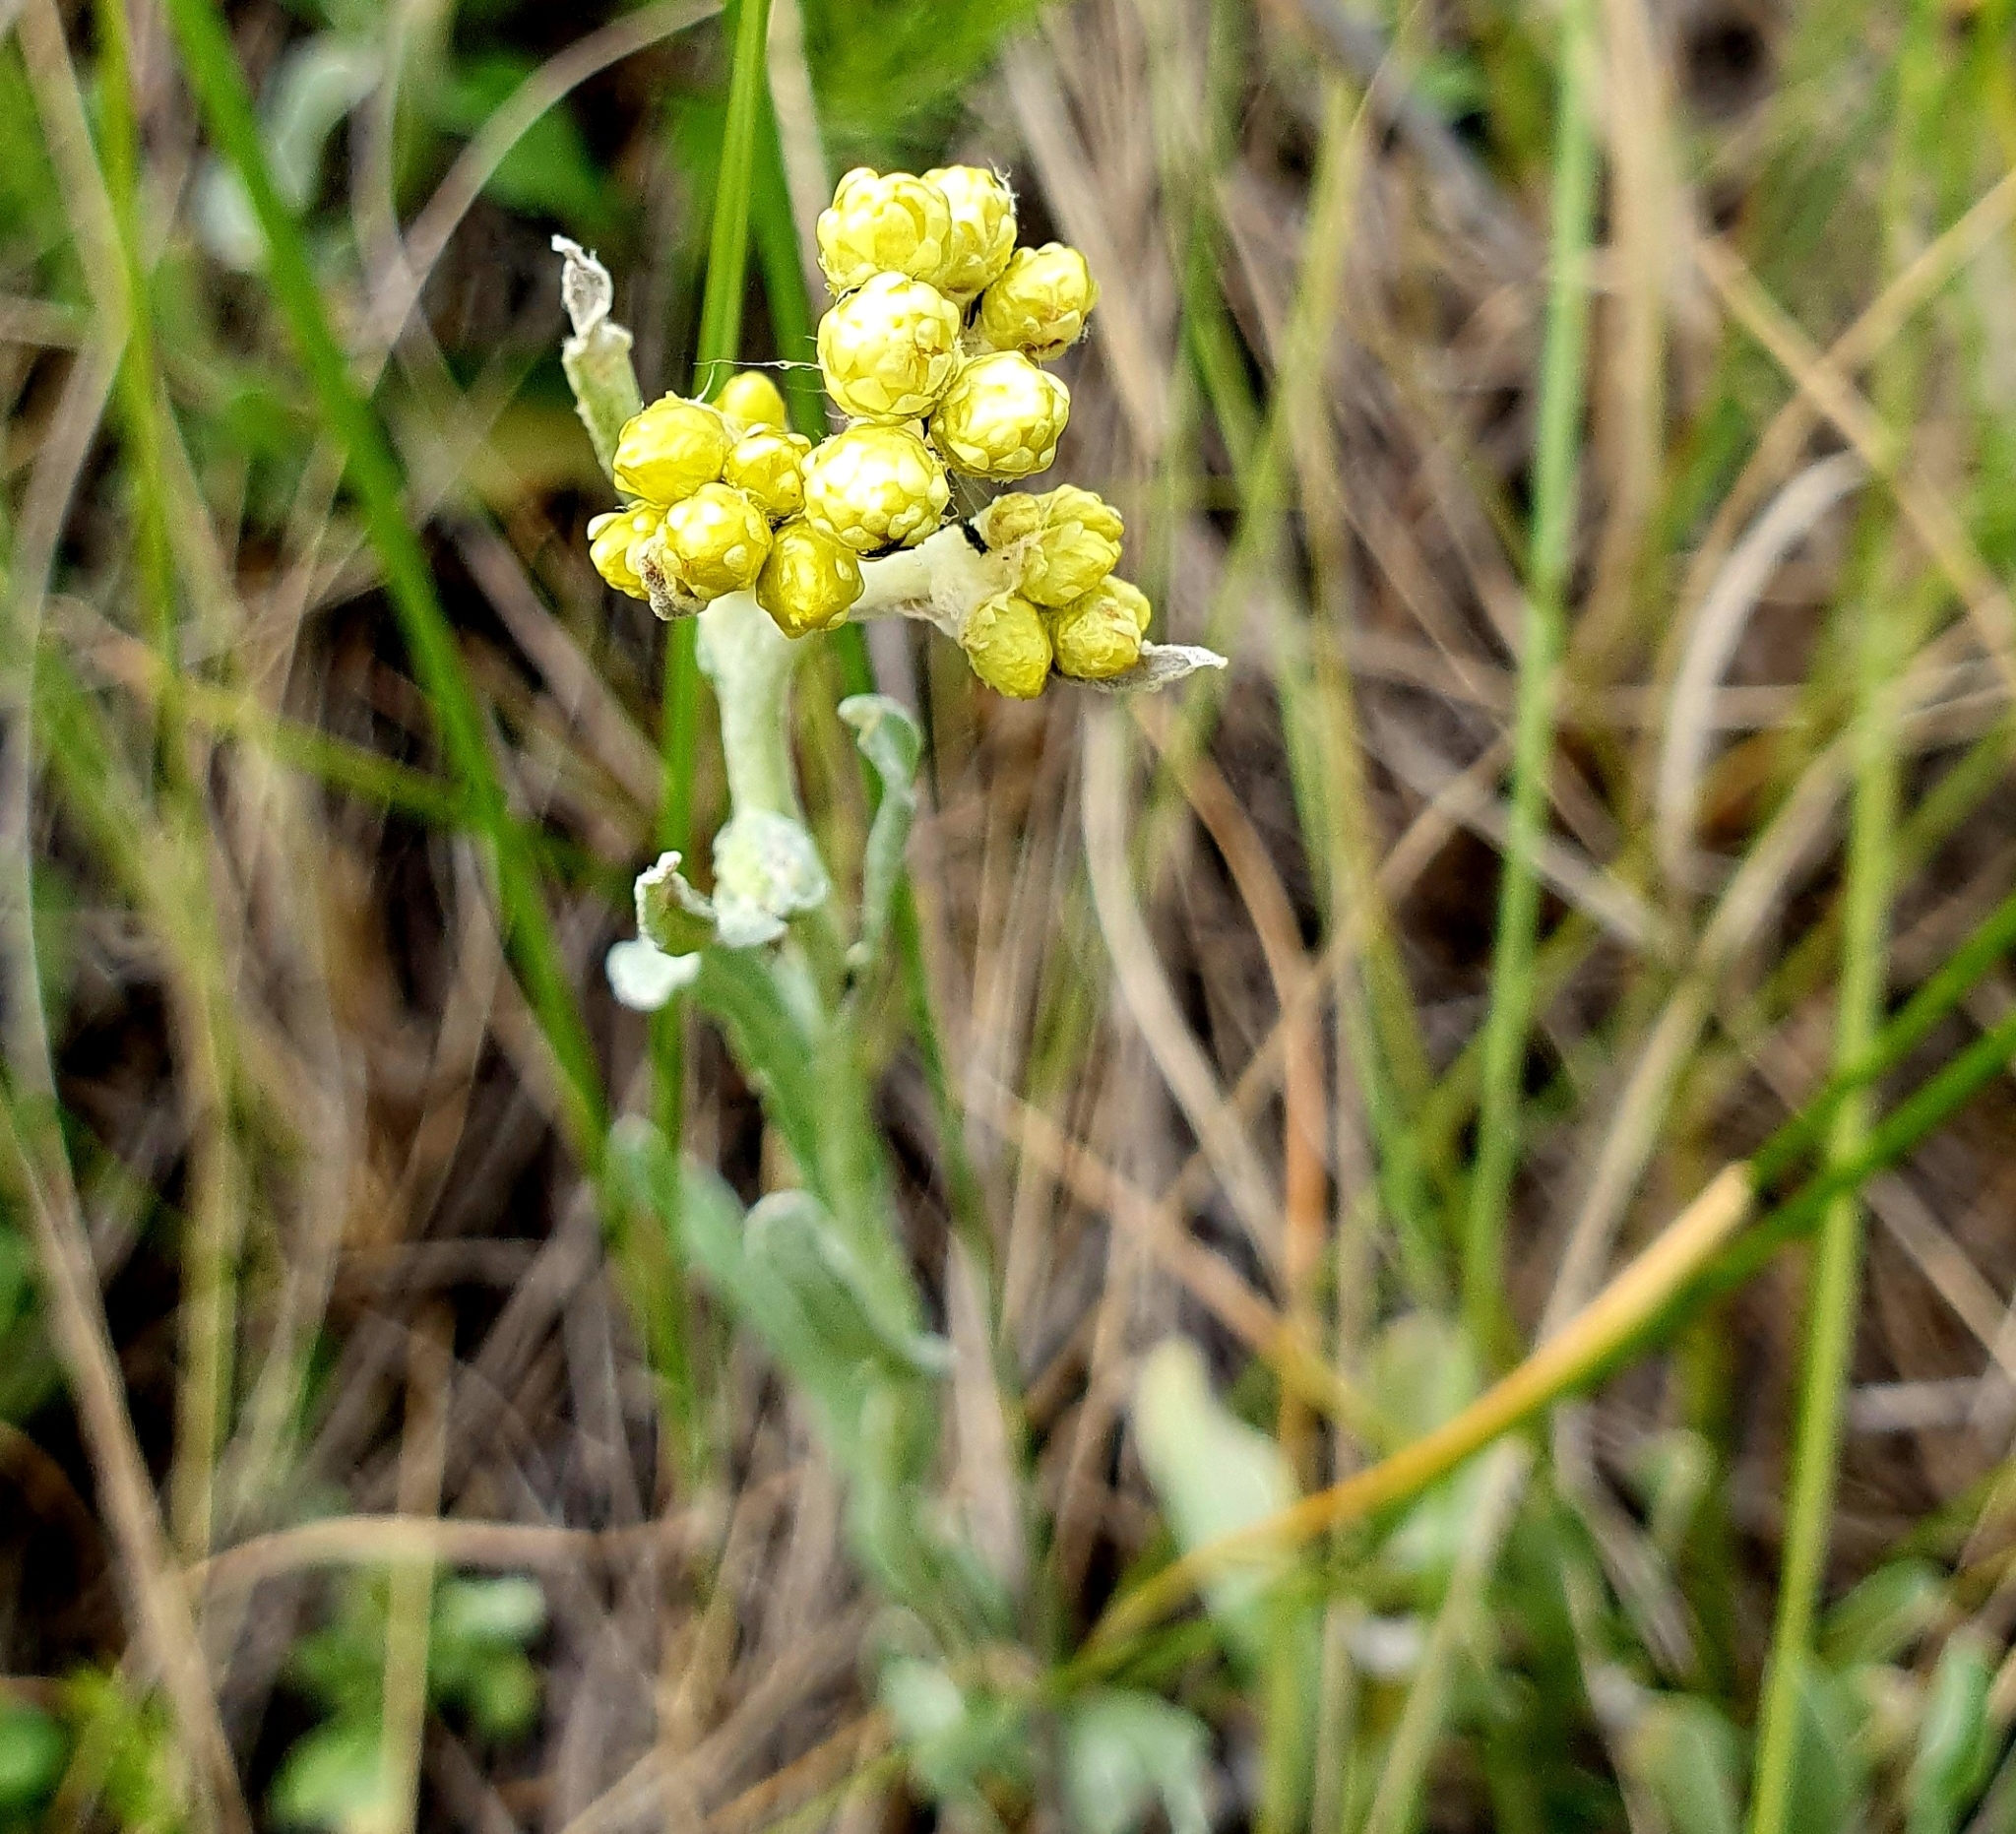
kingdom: Plantae
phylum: Tracheophyta
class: Magnoliopsida
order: Asterales
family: Asteraceae
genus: Helichrysum
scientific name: Helichrysum arenarium
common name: Strawflower
